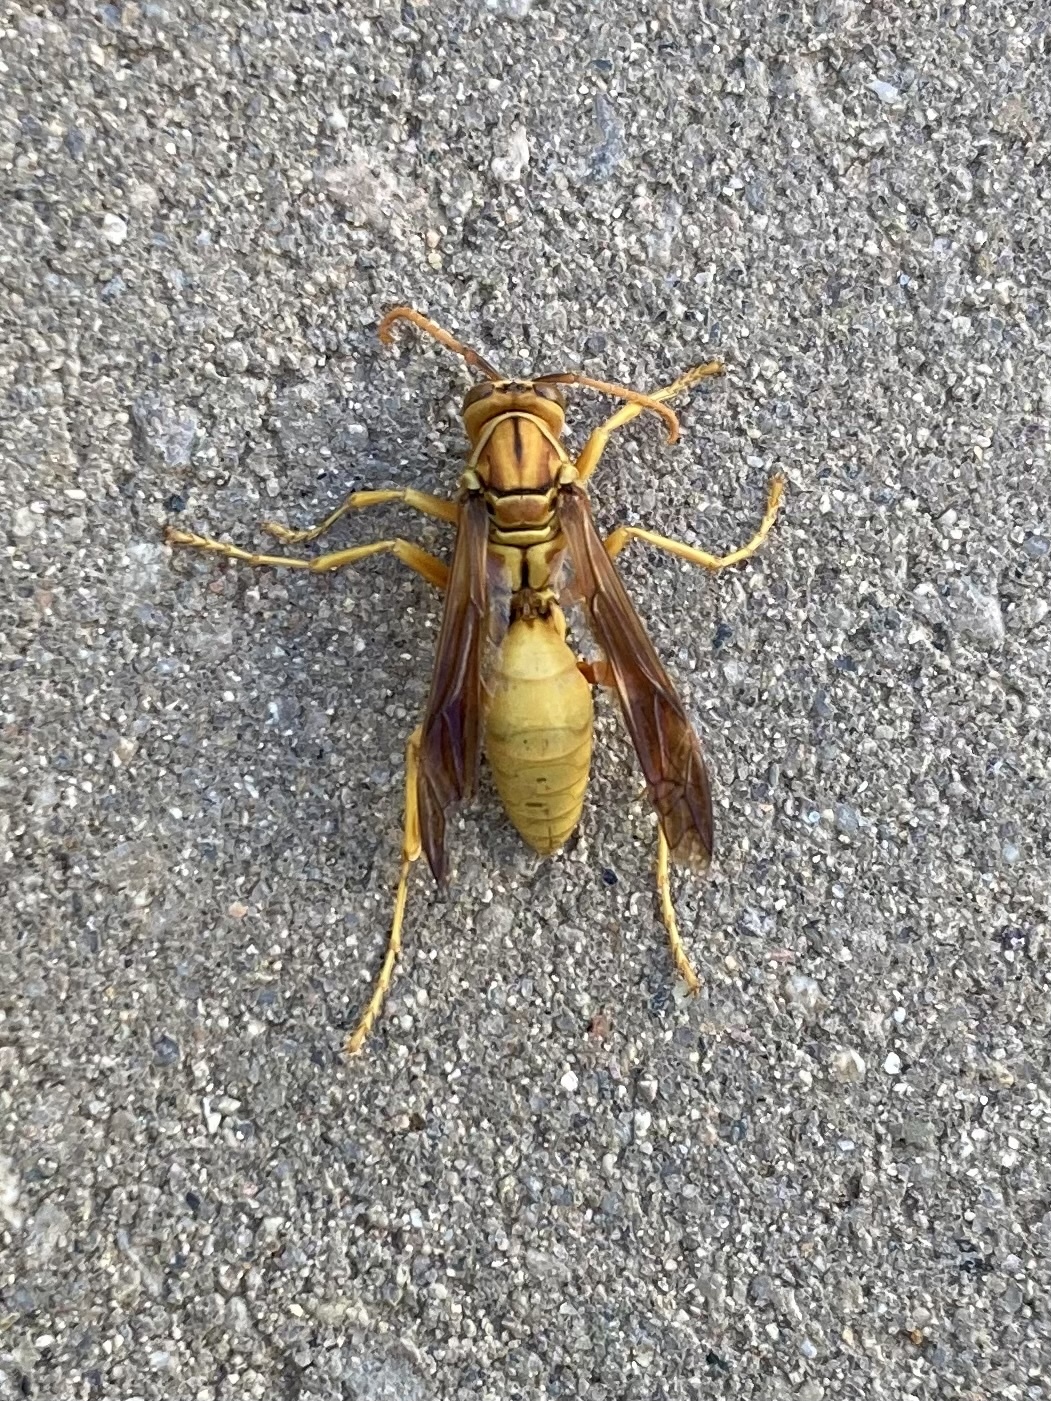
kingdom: Animalia
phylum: Arthropoda
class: Insecta
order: Hymenoptera
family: Eumenidae
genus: Polistes
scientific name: Polistes flavus
